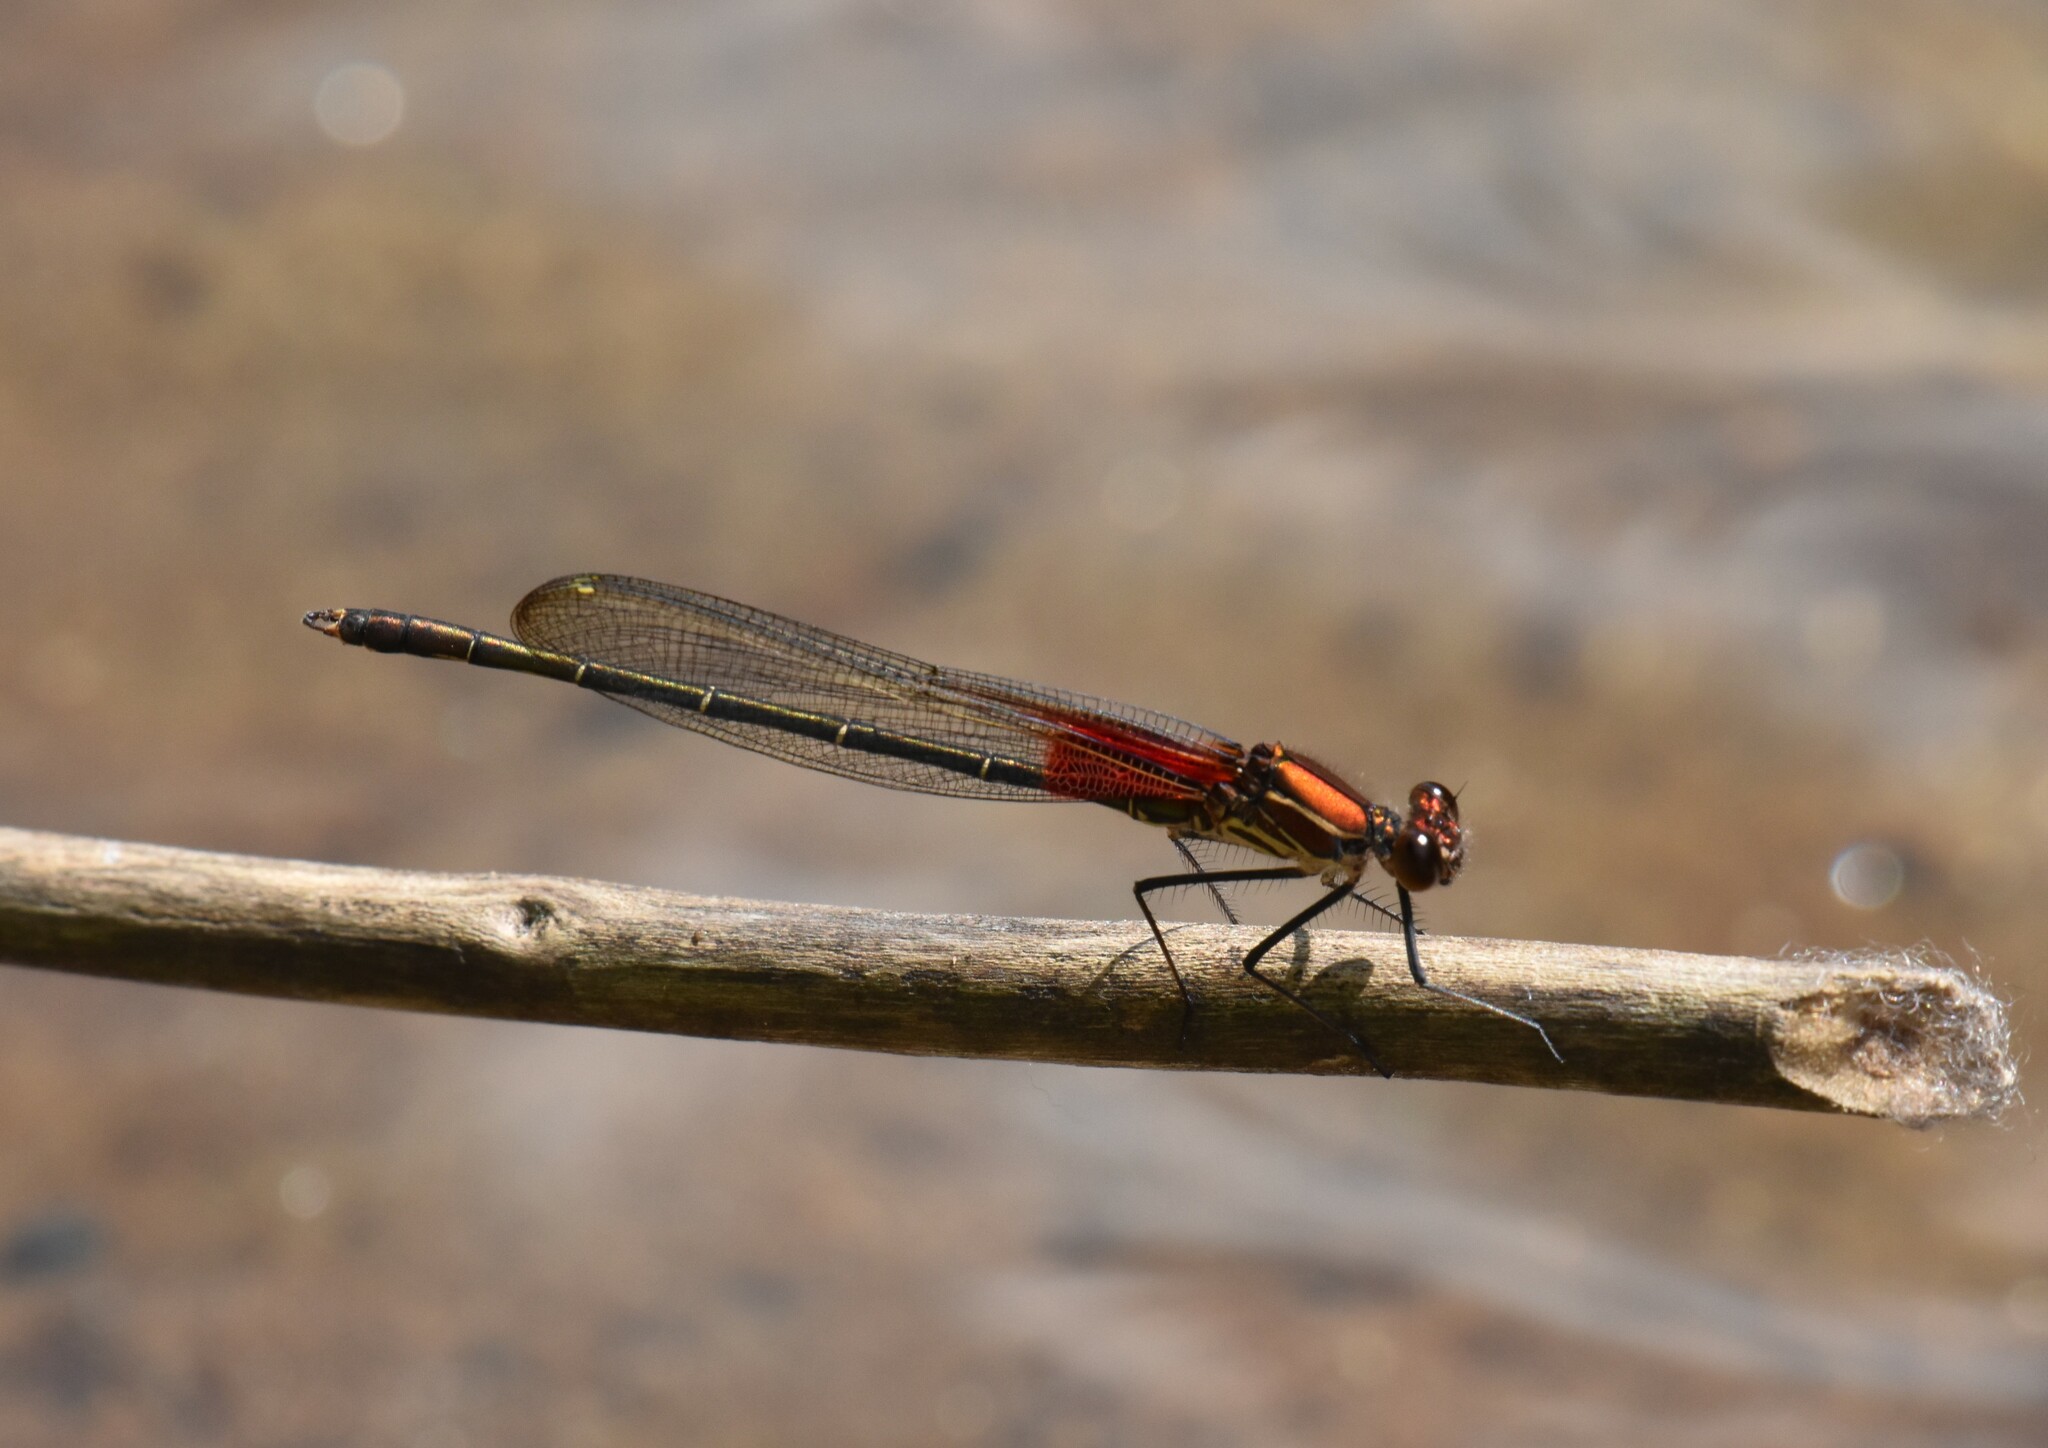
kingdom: Animalia
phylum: Arthropoda
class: Insecta
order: Odonata
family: Calopterygidae
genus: Hetaerina
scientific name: Hetaerina americana
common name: American rubyspot
